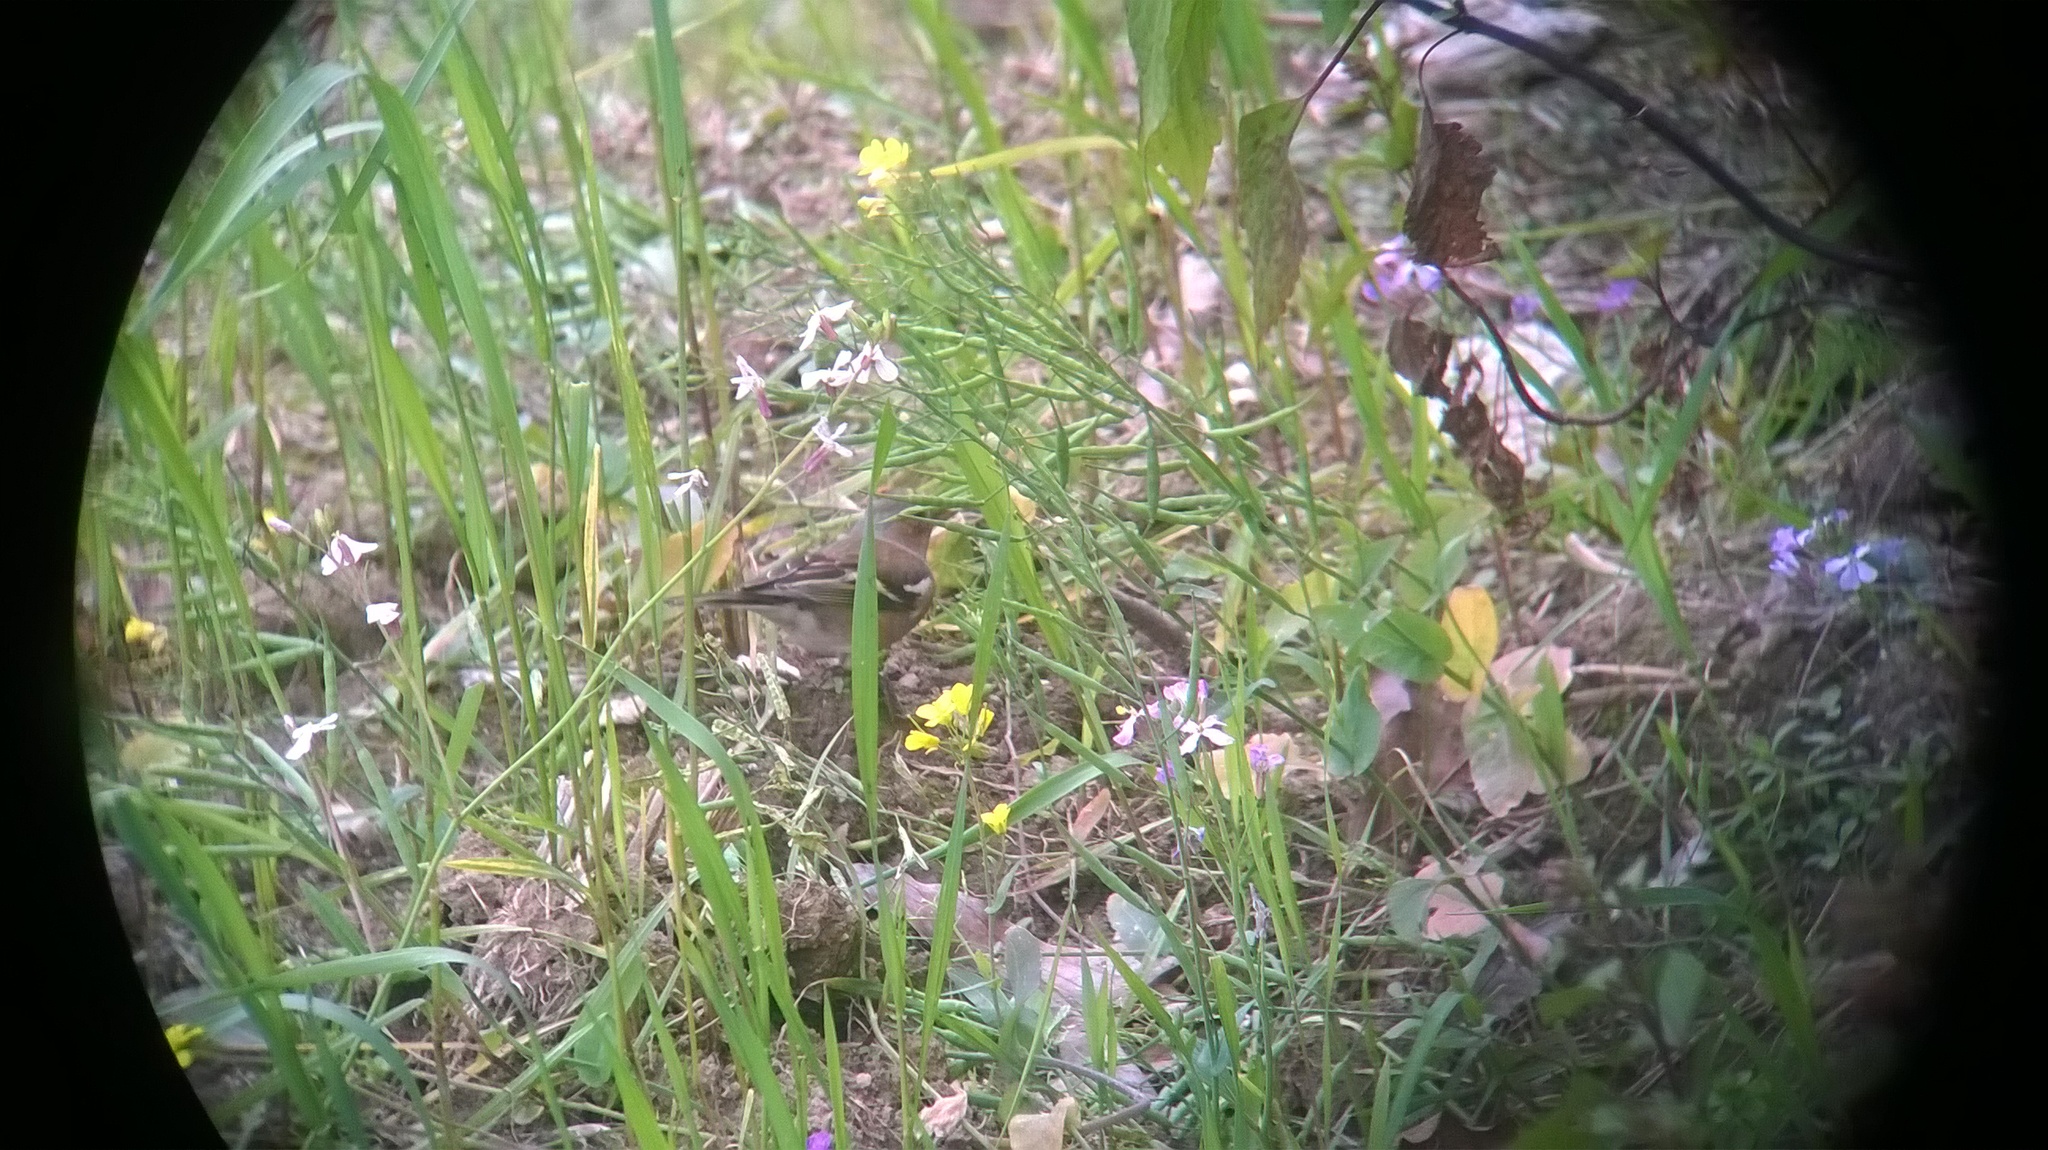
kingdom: Animalia
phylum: Chordata
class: Aves
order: Passeriformes
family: Fringillidae
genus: Fringilla
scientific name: Fringilla coelebs
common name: Common chaffinch
